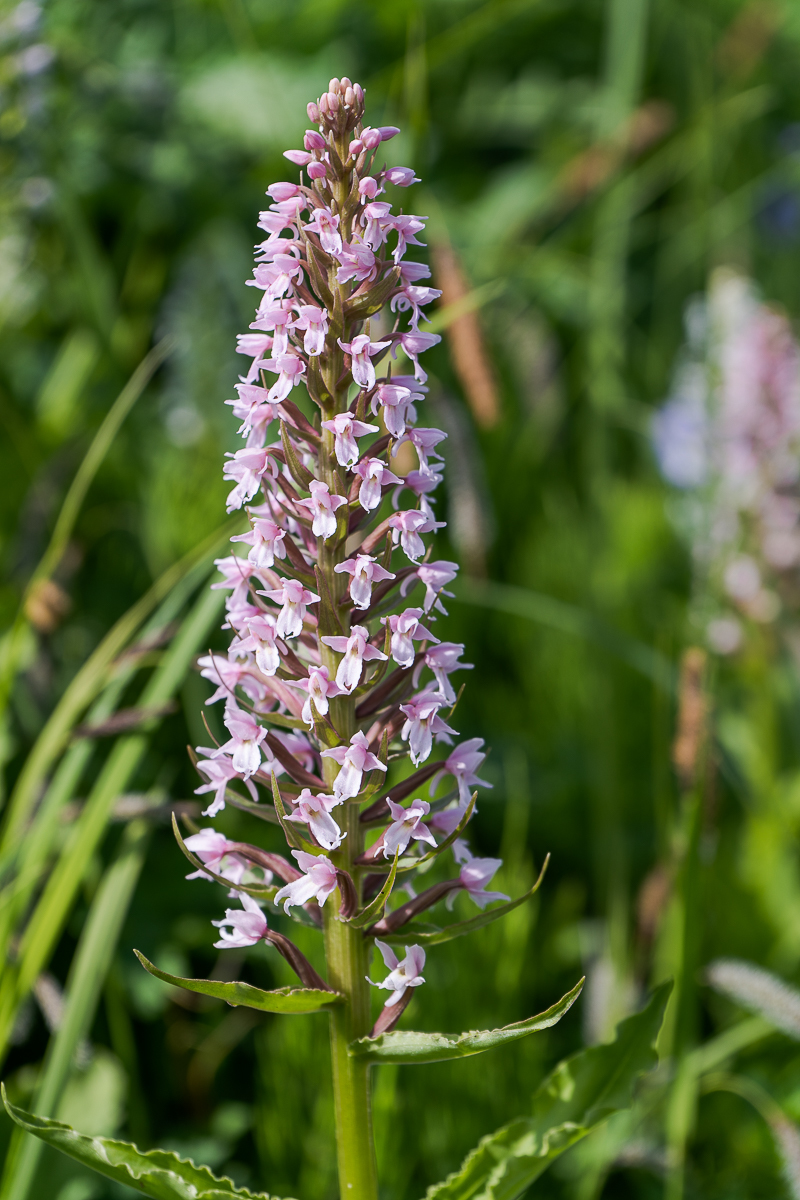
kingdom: Plantae
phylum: Tracheophyta
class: Liliopsida
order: Asparagales
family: Orchidaceae
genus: Galearis
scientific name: Galearis camtschatica
